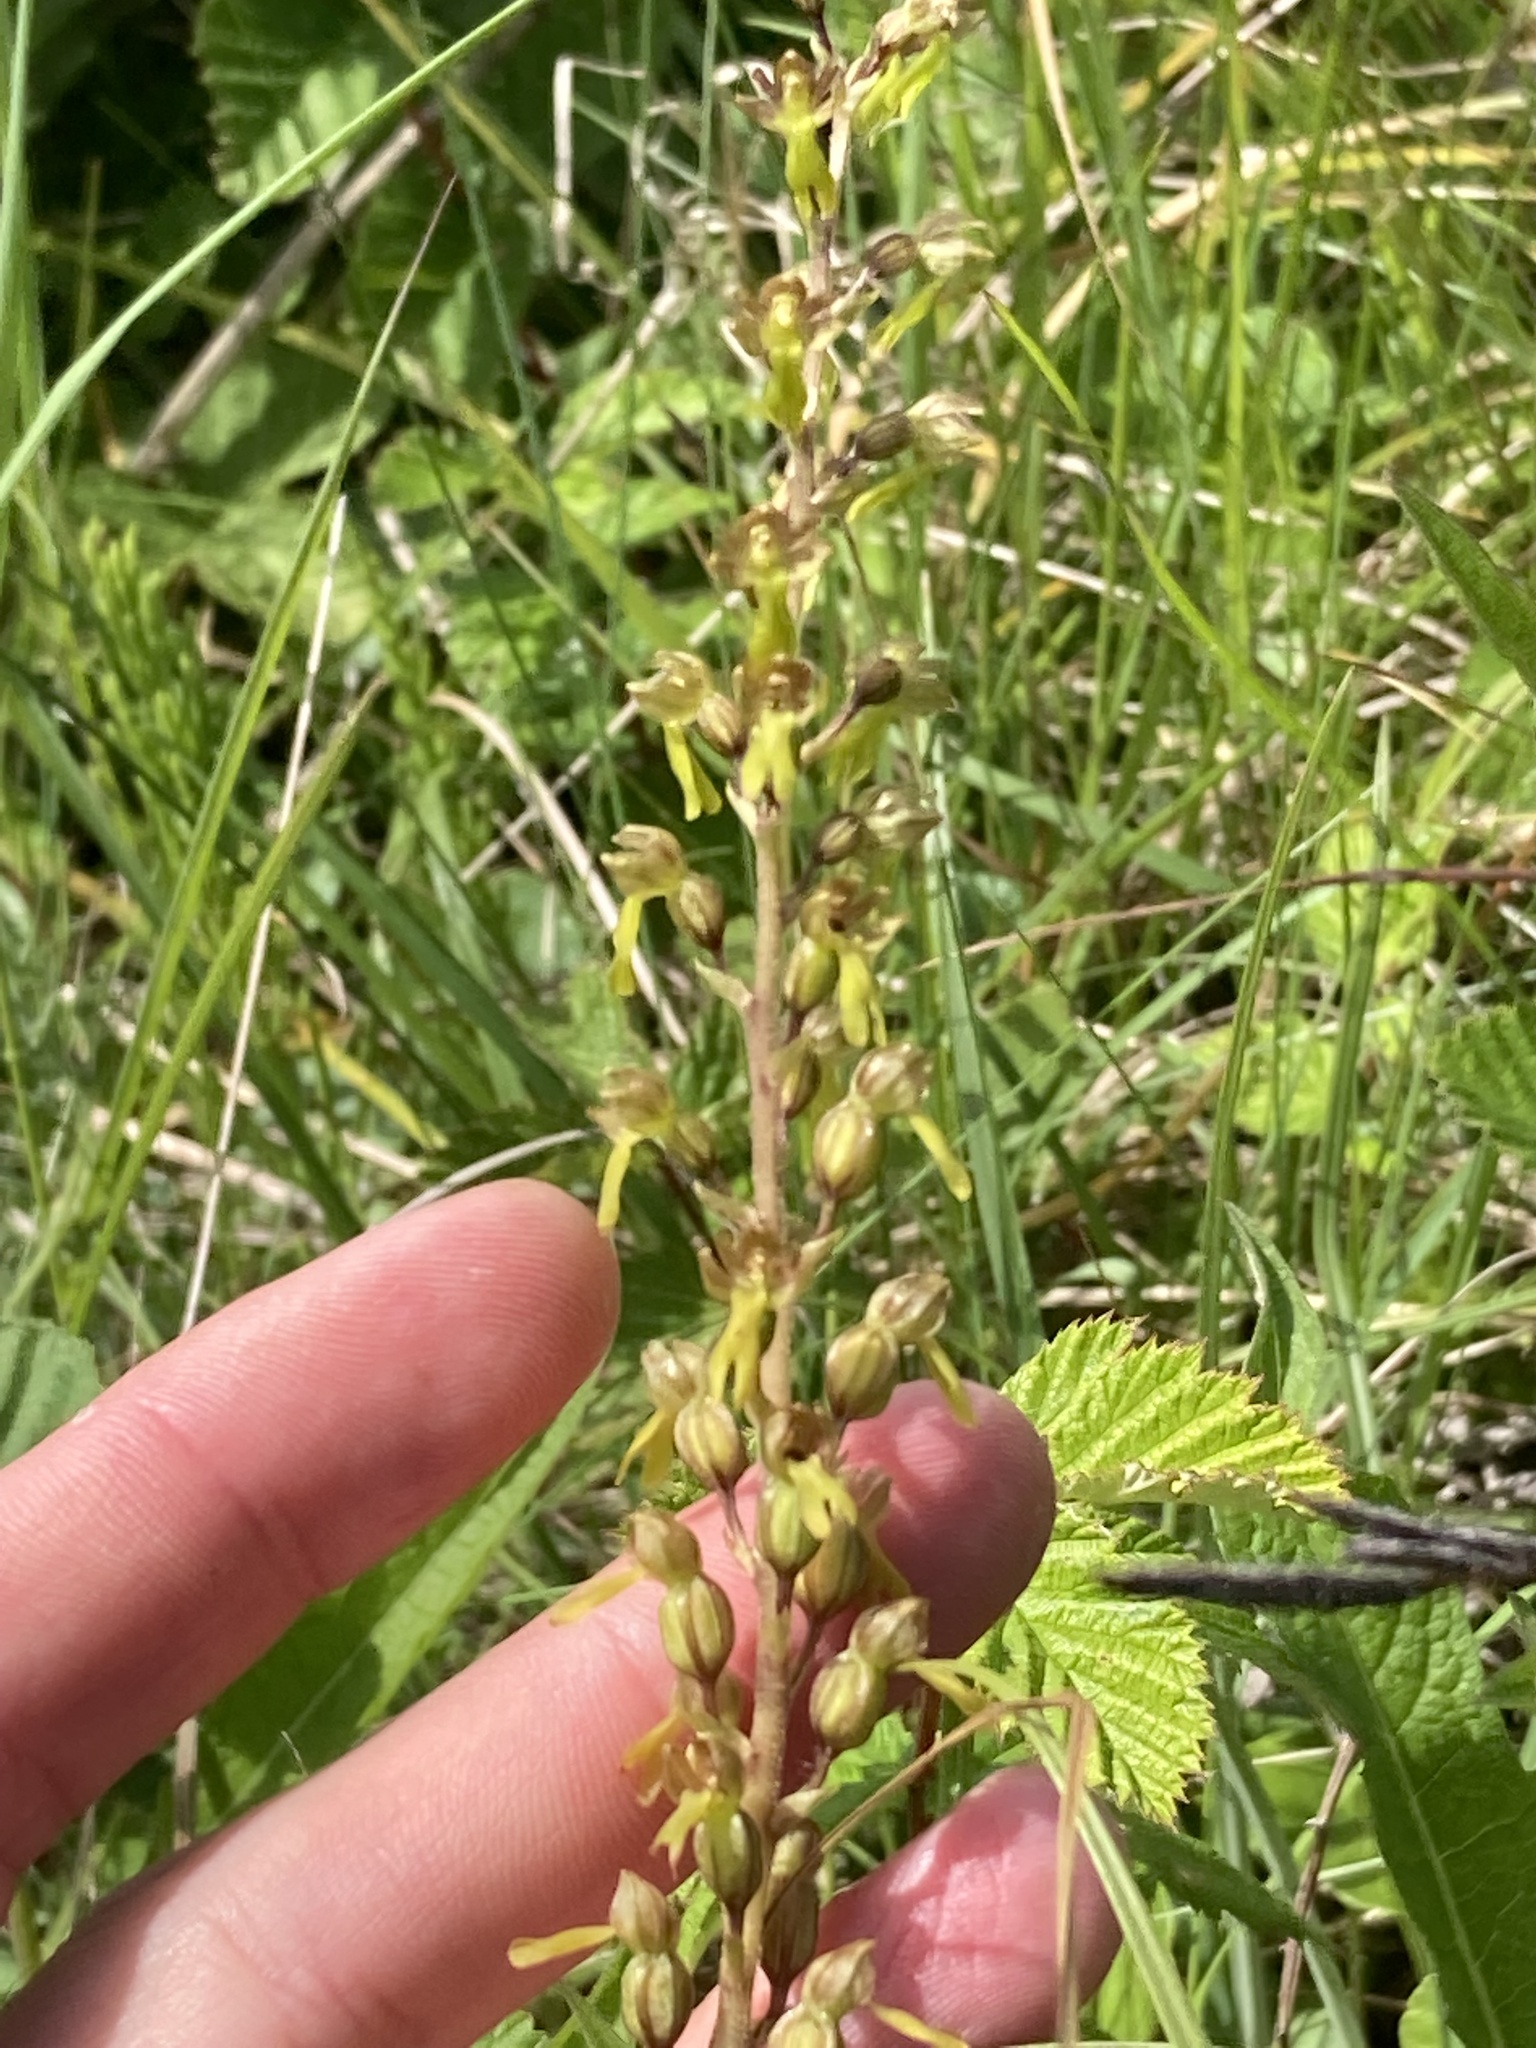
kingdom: Plantae
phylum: Tracheophyta
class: Liliopsida
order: Asparagales
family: Orchidaceae
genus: Neottia
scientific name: Neottia ovata
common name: Common twayblade
